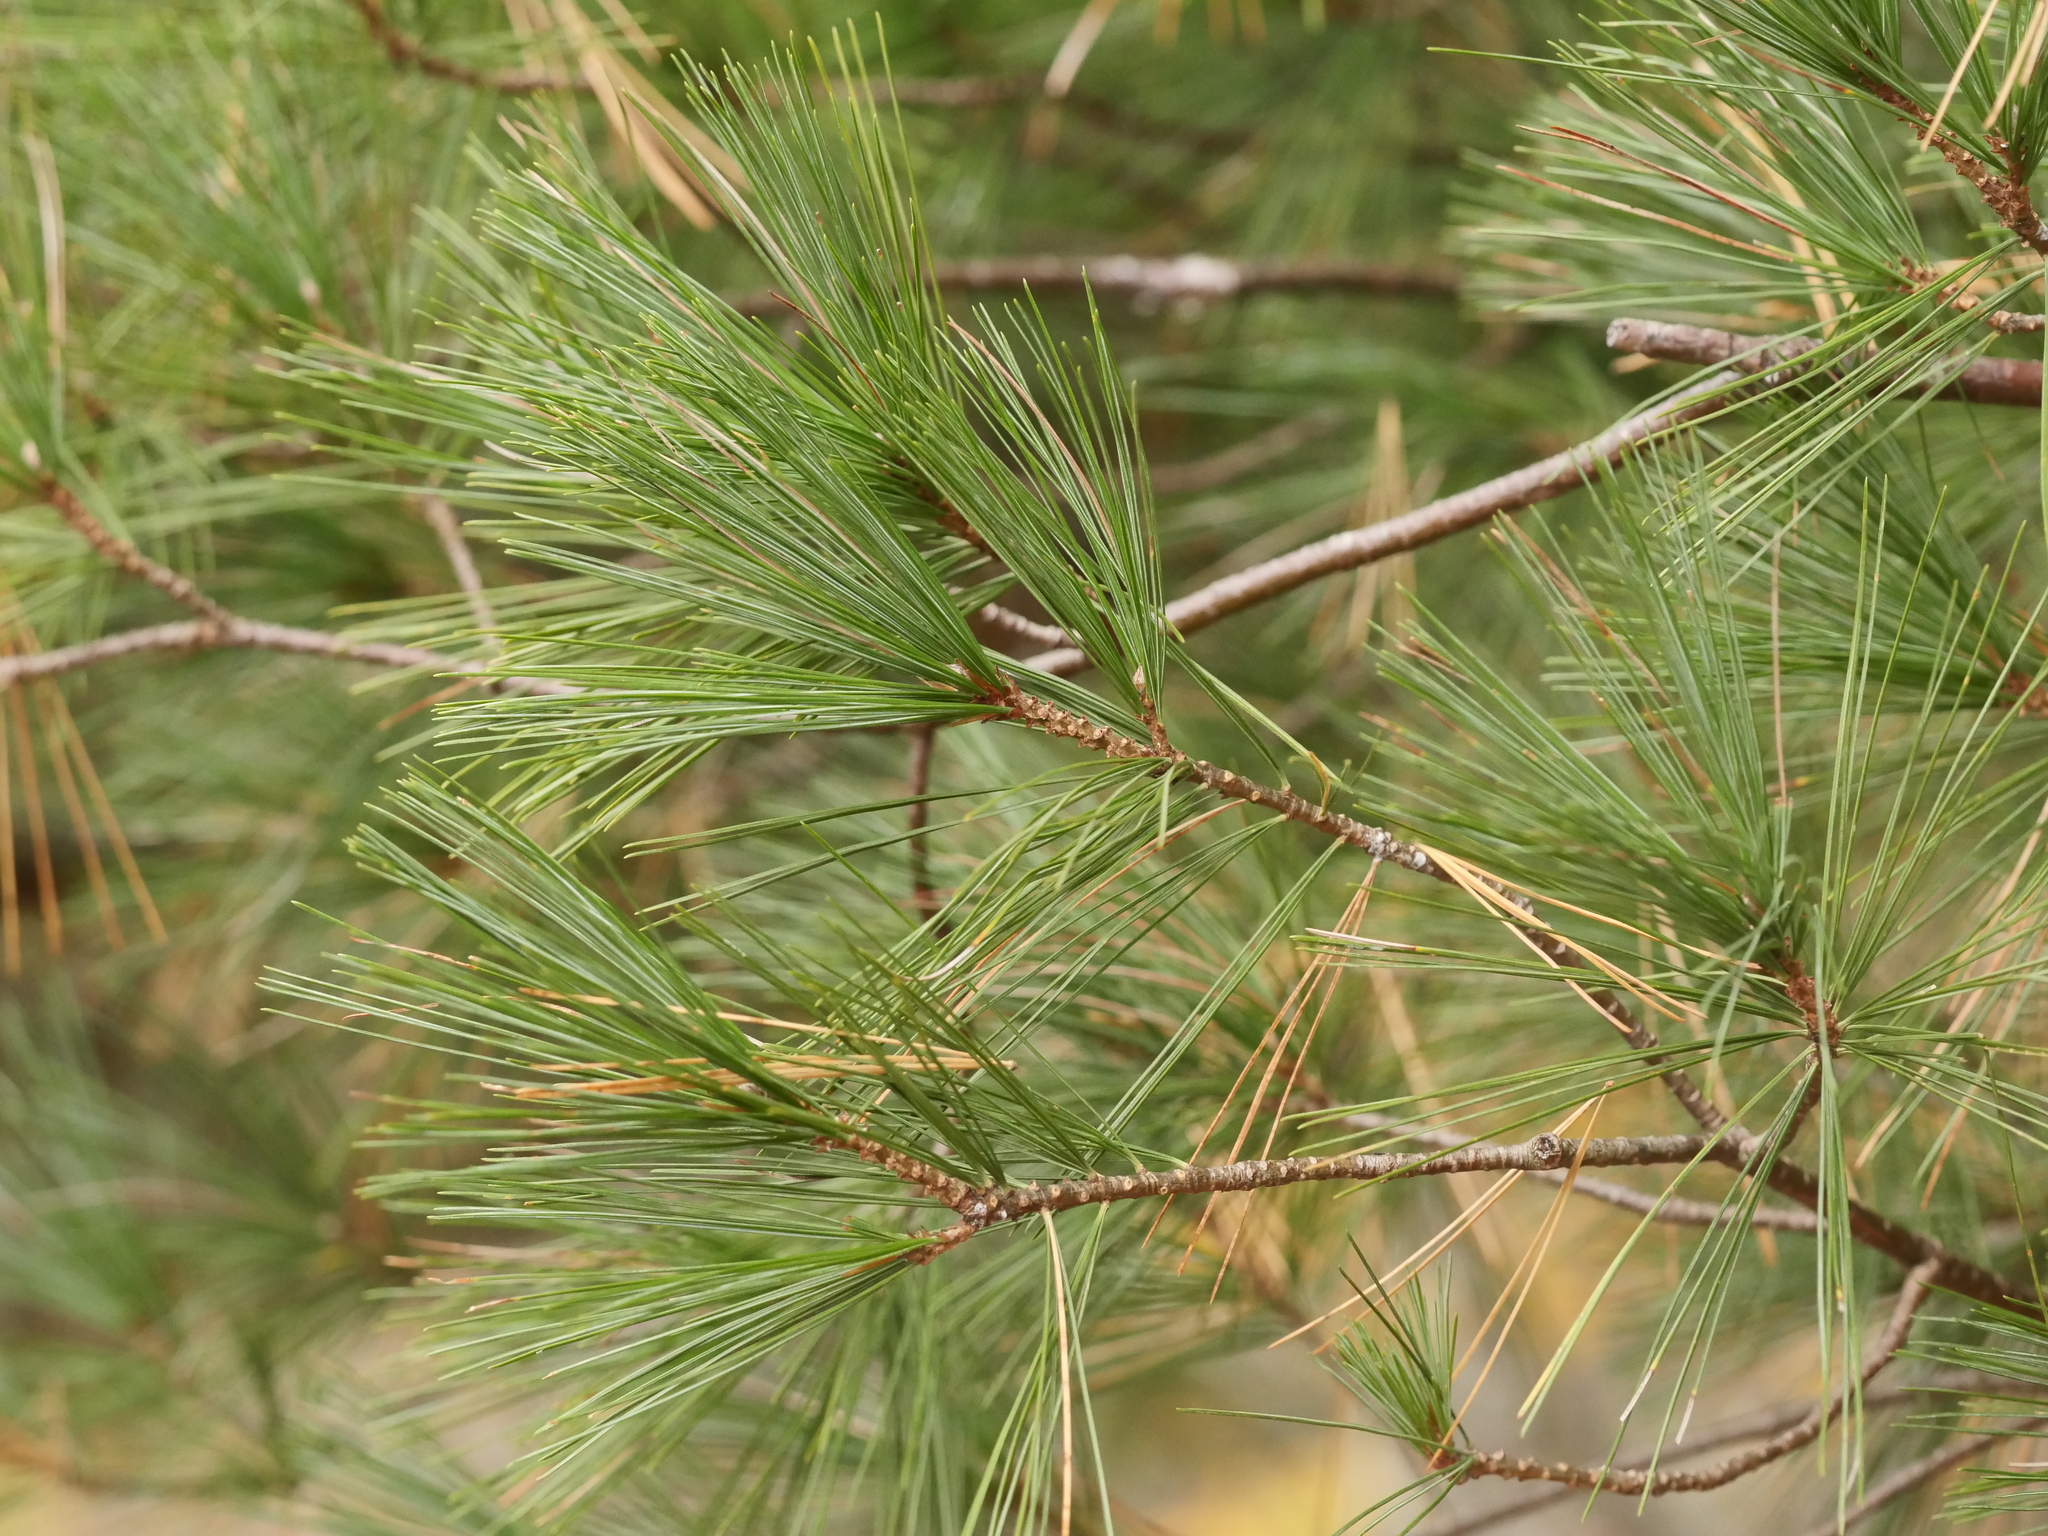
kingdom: Plantae
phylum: Tracheophyta
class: Pinopsida
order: Pinales
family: Pinaceae
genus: Pinus
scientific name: Pinus strobus
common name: Weymouth pine
